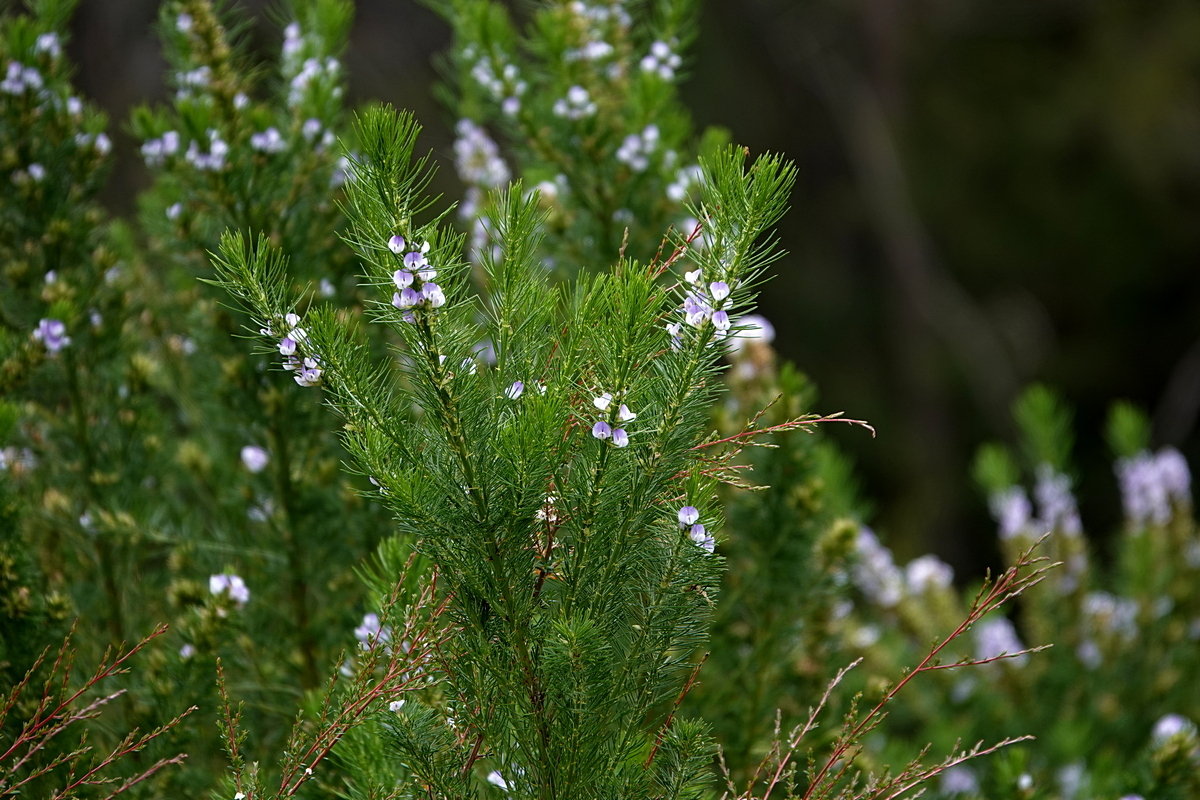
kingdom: Plantae
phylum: Tracheophyta
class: Magnoliopsida
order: Fabales
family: Fabaceae
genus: Psoralea
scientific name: Psoralea pinnata
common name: African scurfpea
